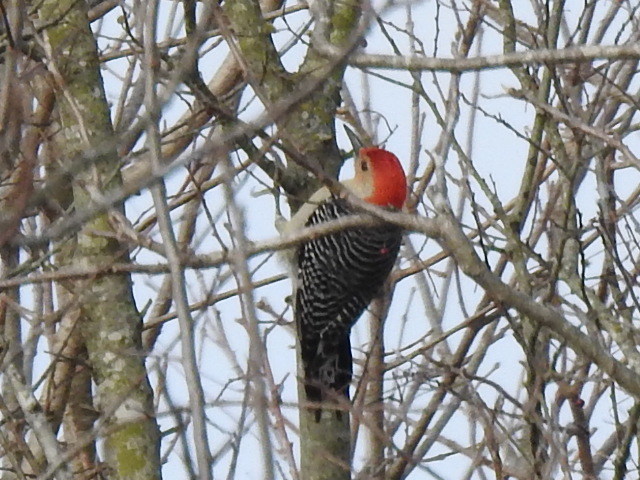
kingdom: Animalia
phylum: Chordata
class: Aves
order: Piciformes
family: Picidae
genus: Melanerpes
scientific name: Melanerpes carolinus
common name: Red-bellied woodpecker
